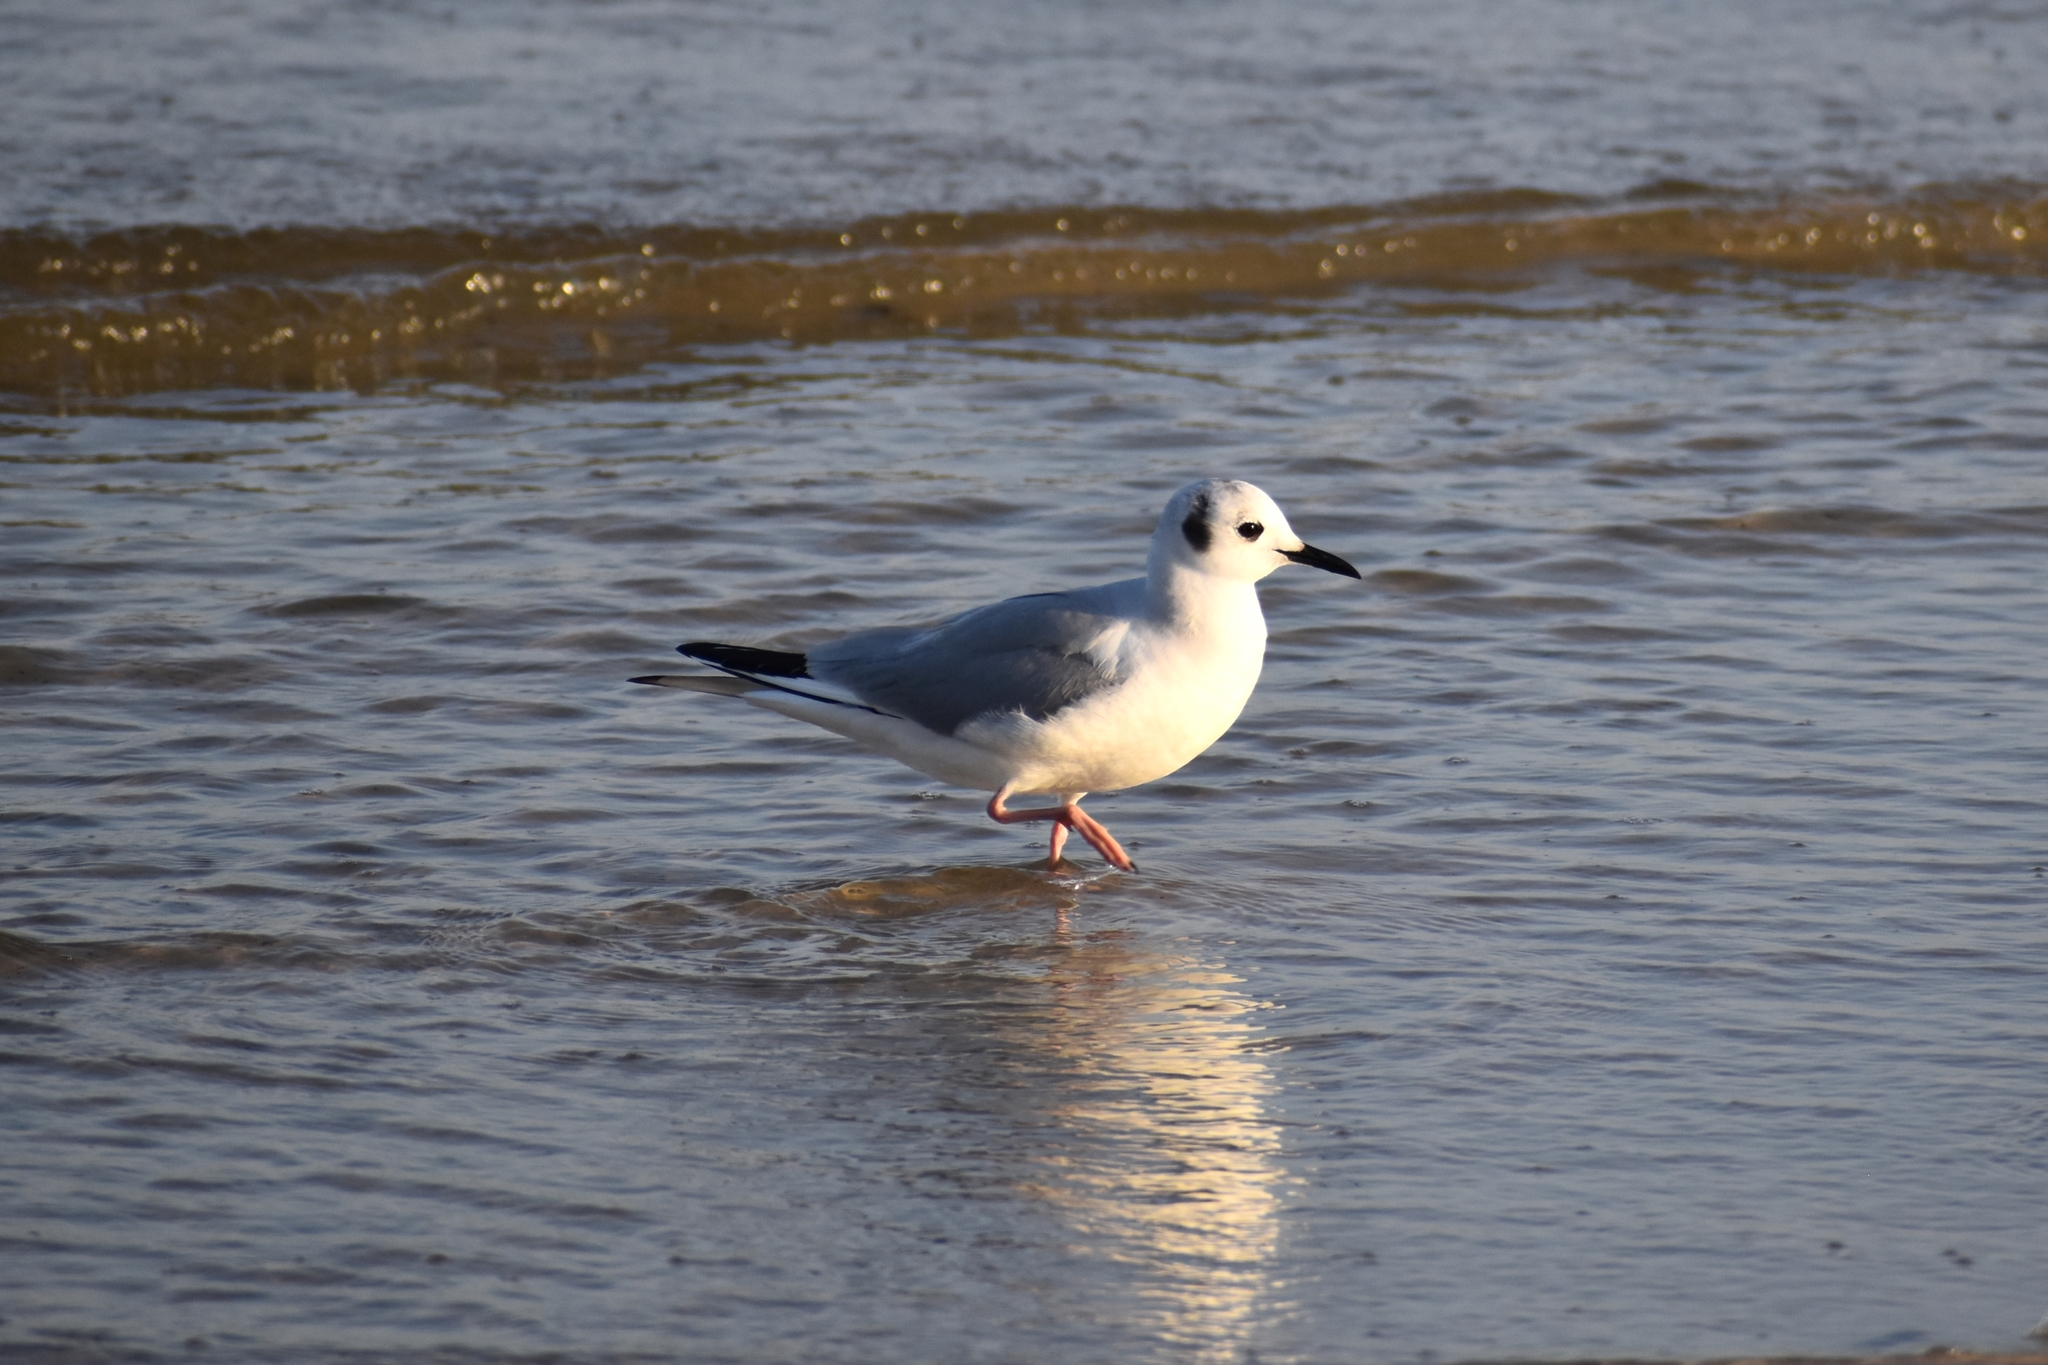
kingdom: Animalia
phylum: Chordata
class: Aves
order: Charadriiformes
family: Laridae
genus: Chroicocephalus
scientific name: Chroicocephalus philadelphia
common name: Bonaparte's gull
